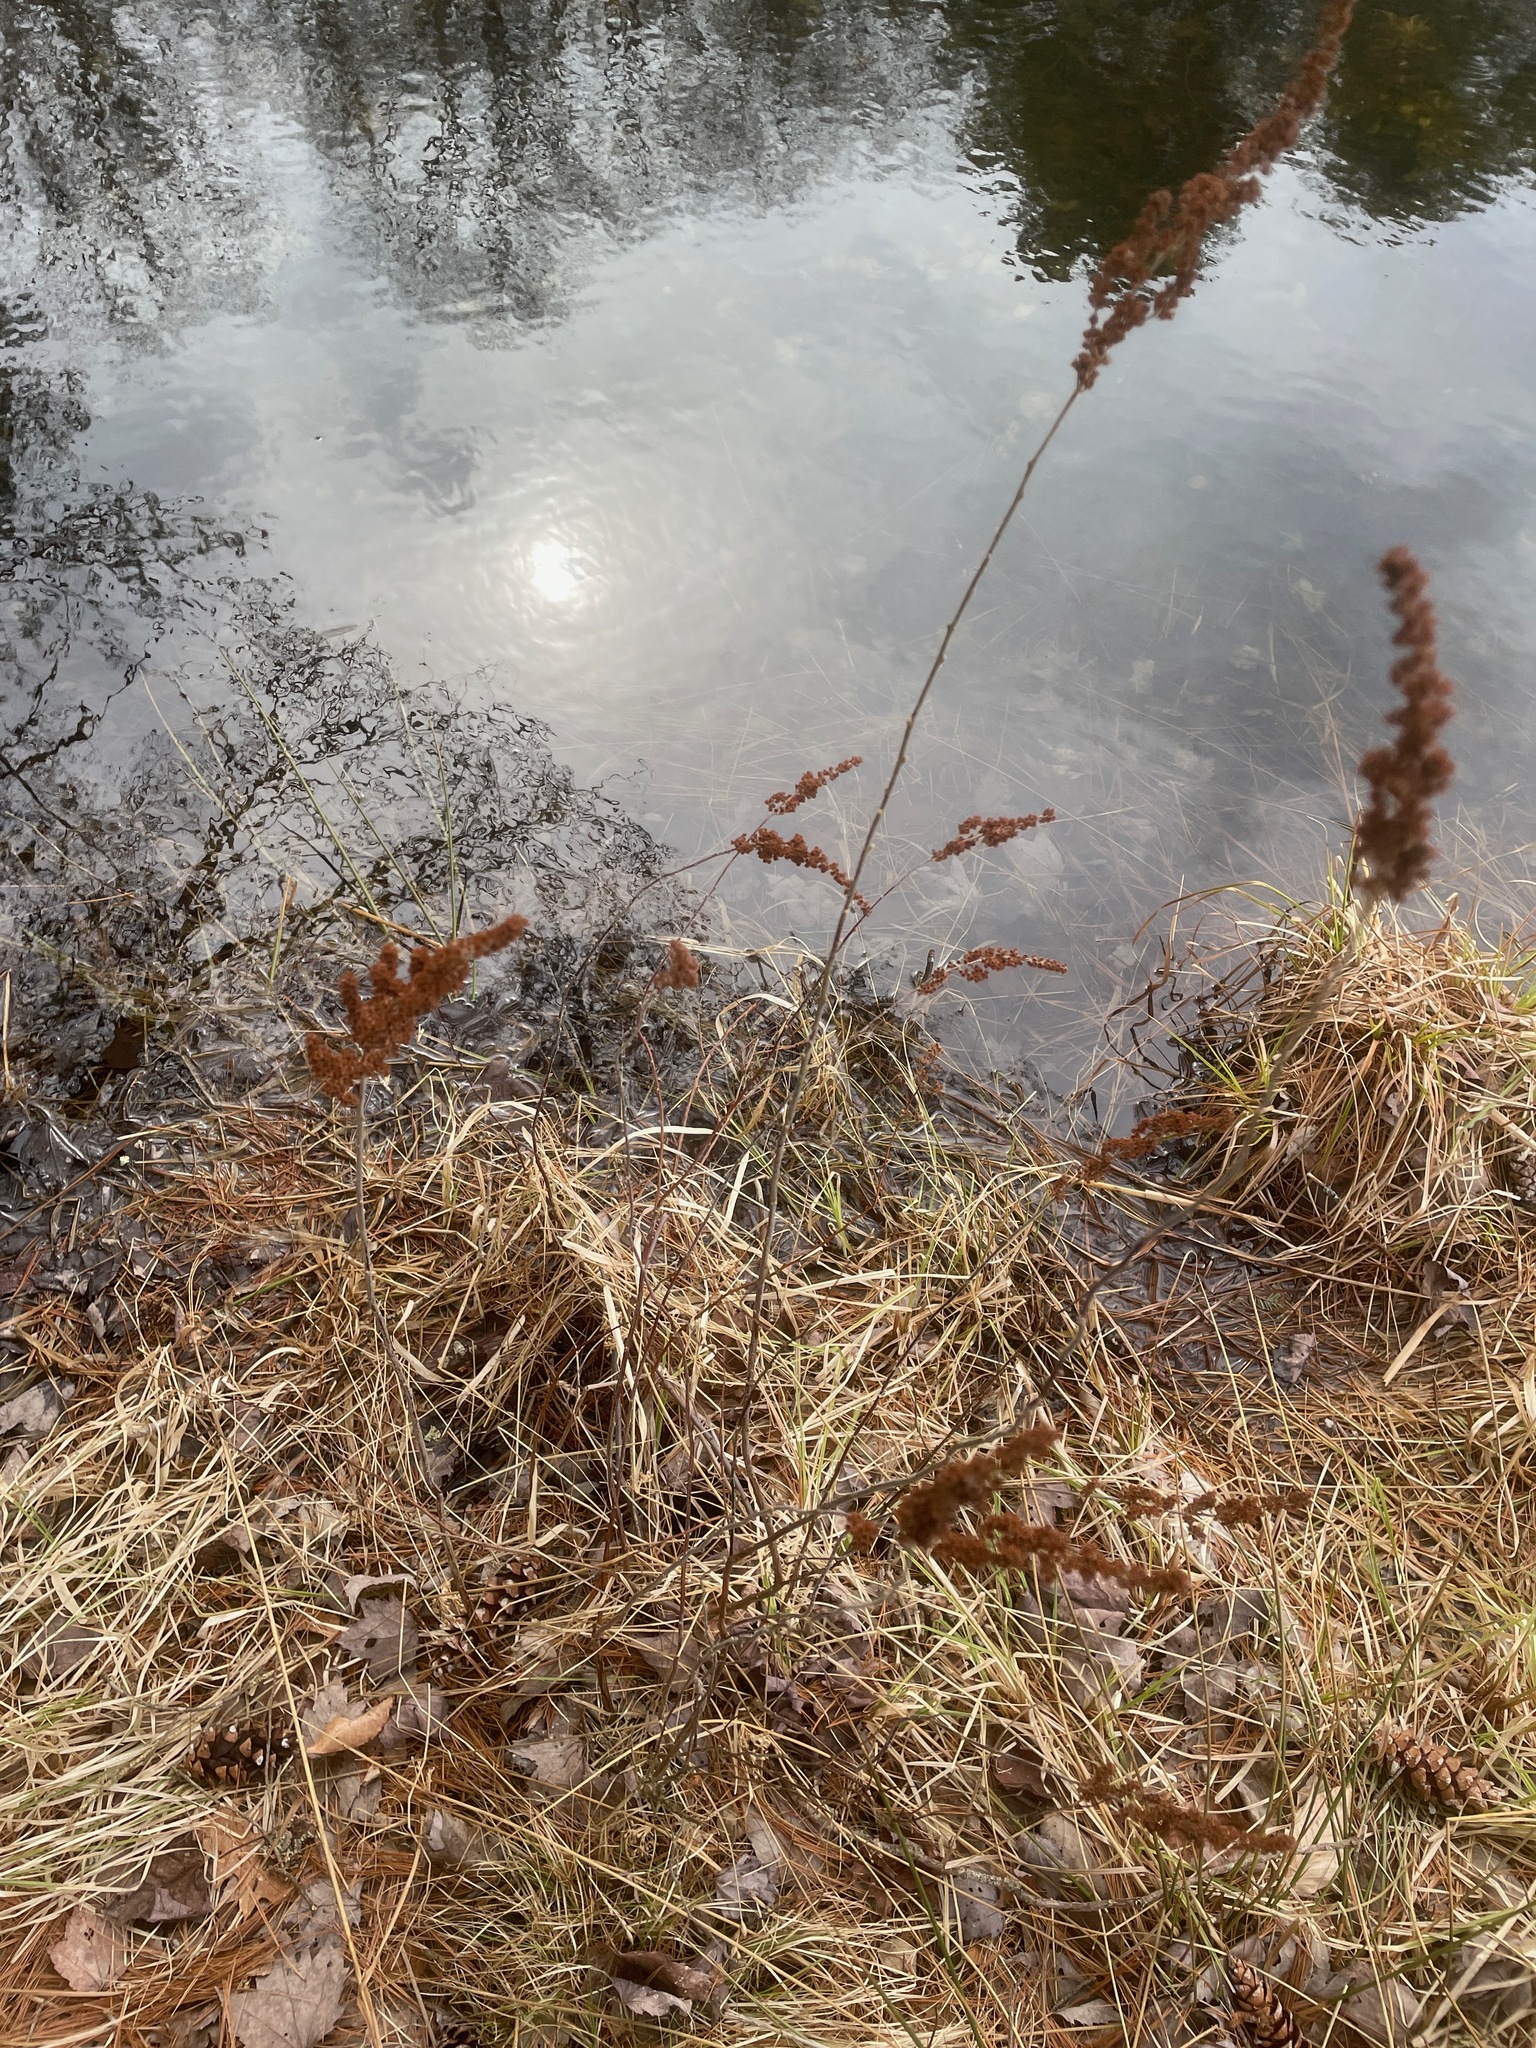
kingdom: Plantae
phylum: Tracheophyta
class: Magnoliopsida
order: Rosales
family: Rosaceae
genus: Spiraea
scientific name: Spiraea tomentosa
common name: Hardhack
